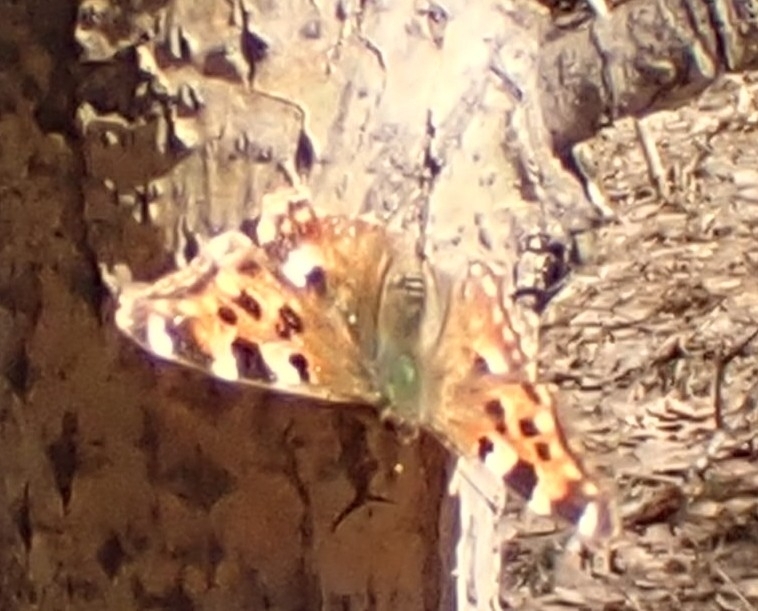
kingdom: Animalia
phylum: Arthropoda
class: Insecta
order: Lepidoptera
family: Nymphalidae
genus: Polygonia
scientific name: Polygonia vaualbum
